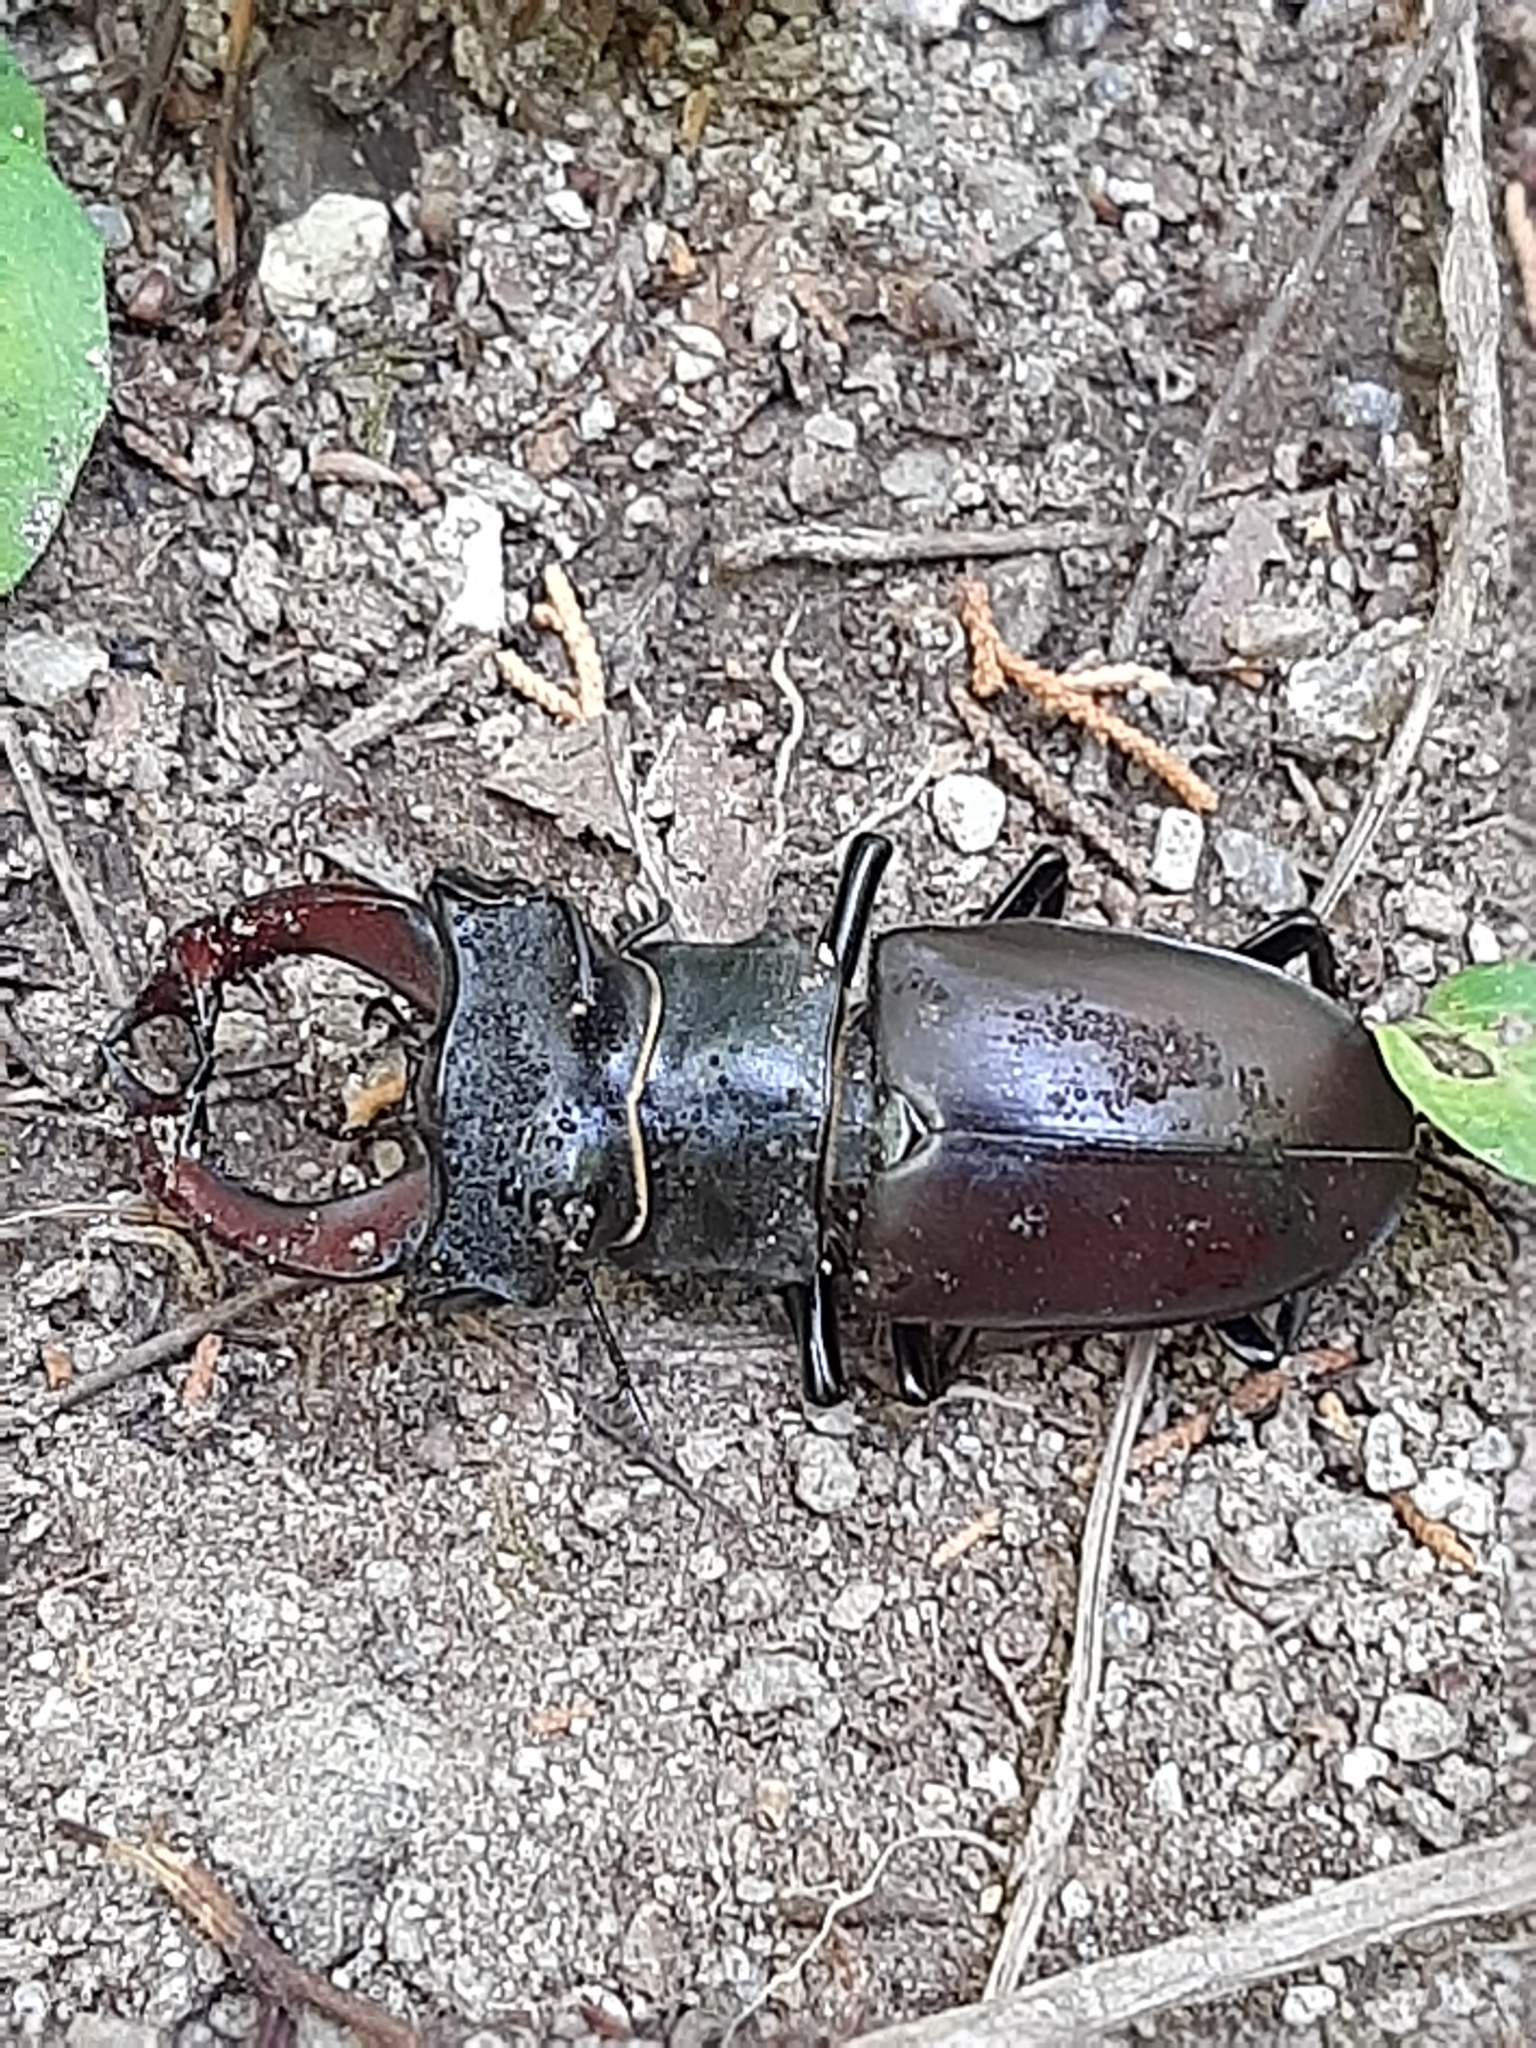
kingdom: Animalia
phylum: Arthropoda
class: Insecta
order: Coleoptera
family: Lucanidae
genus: Lucanus
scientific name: Lucanus cervus
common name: Stag beetle
